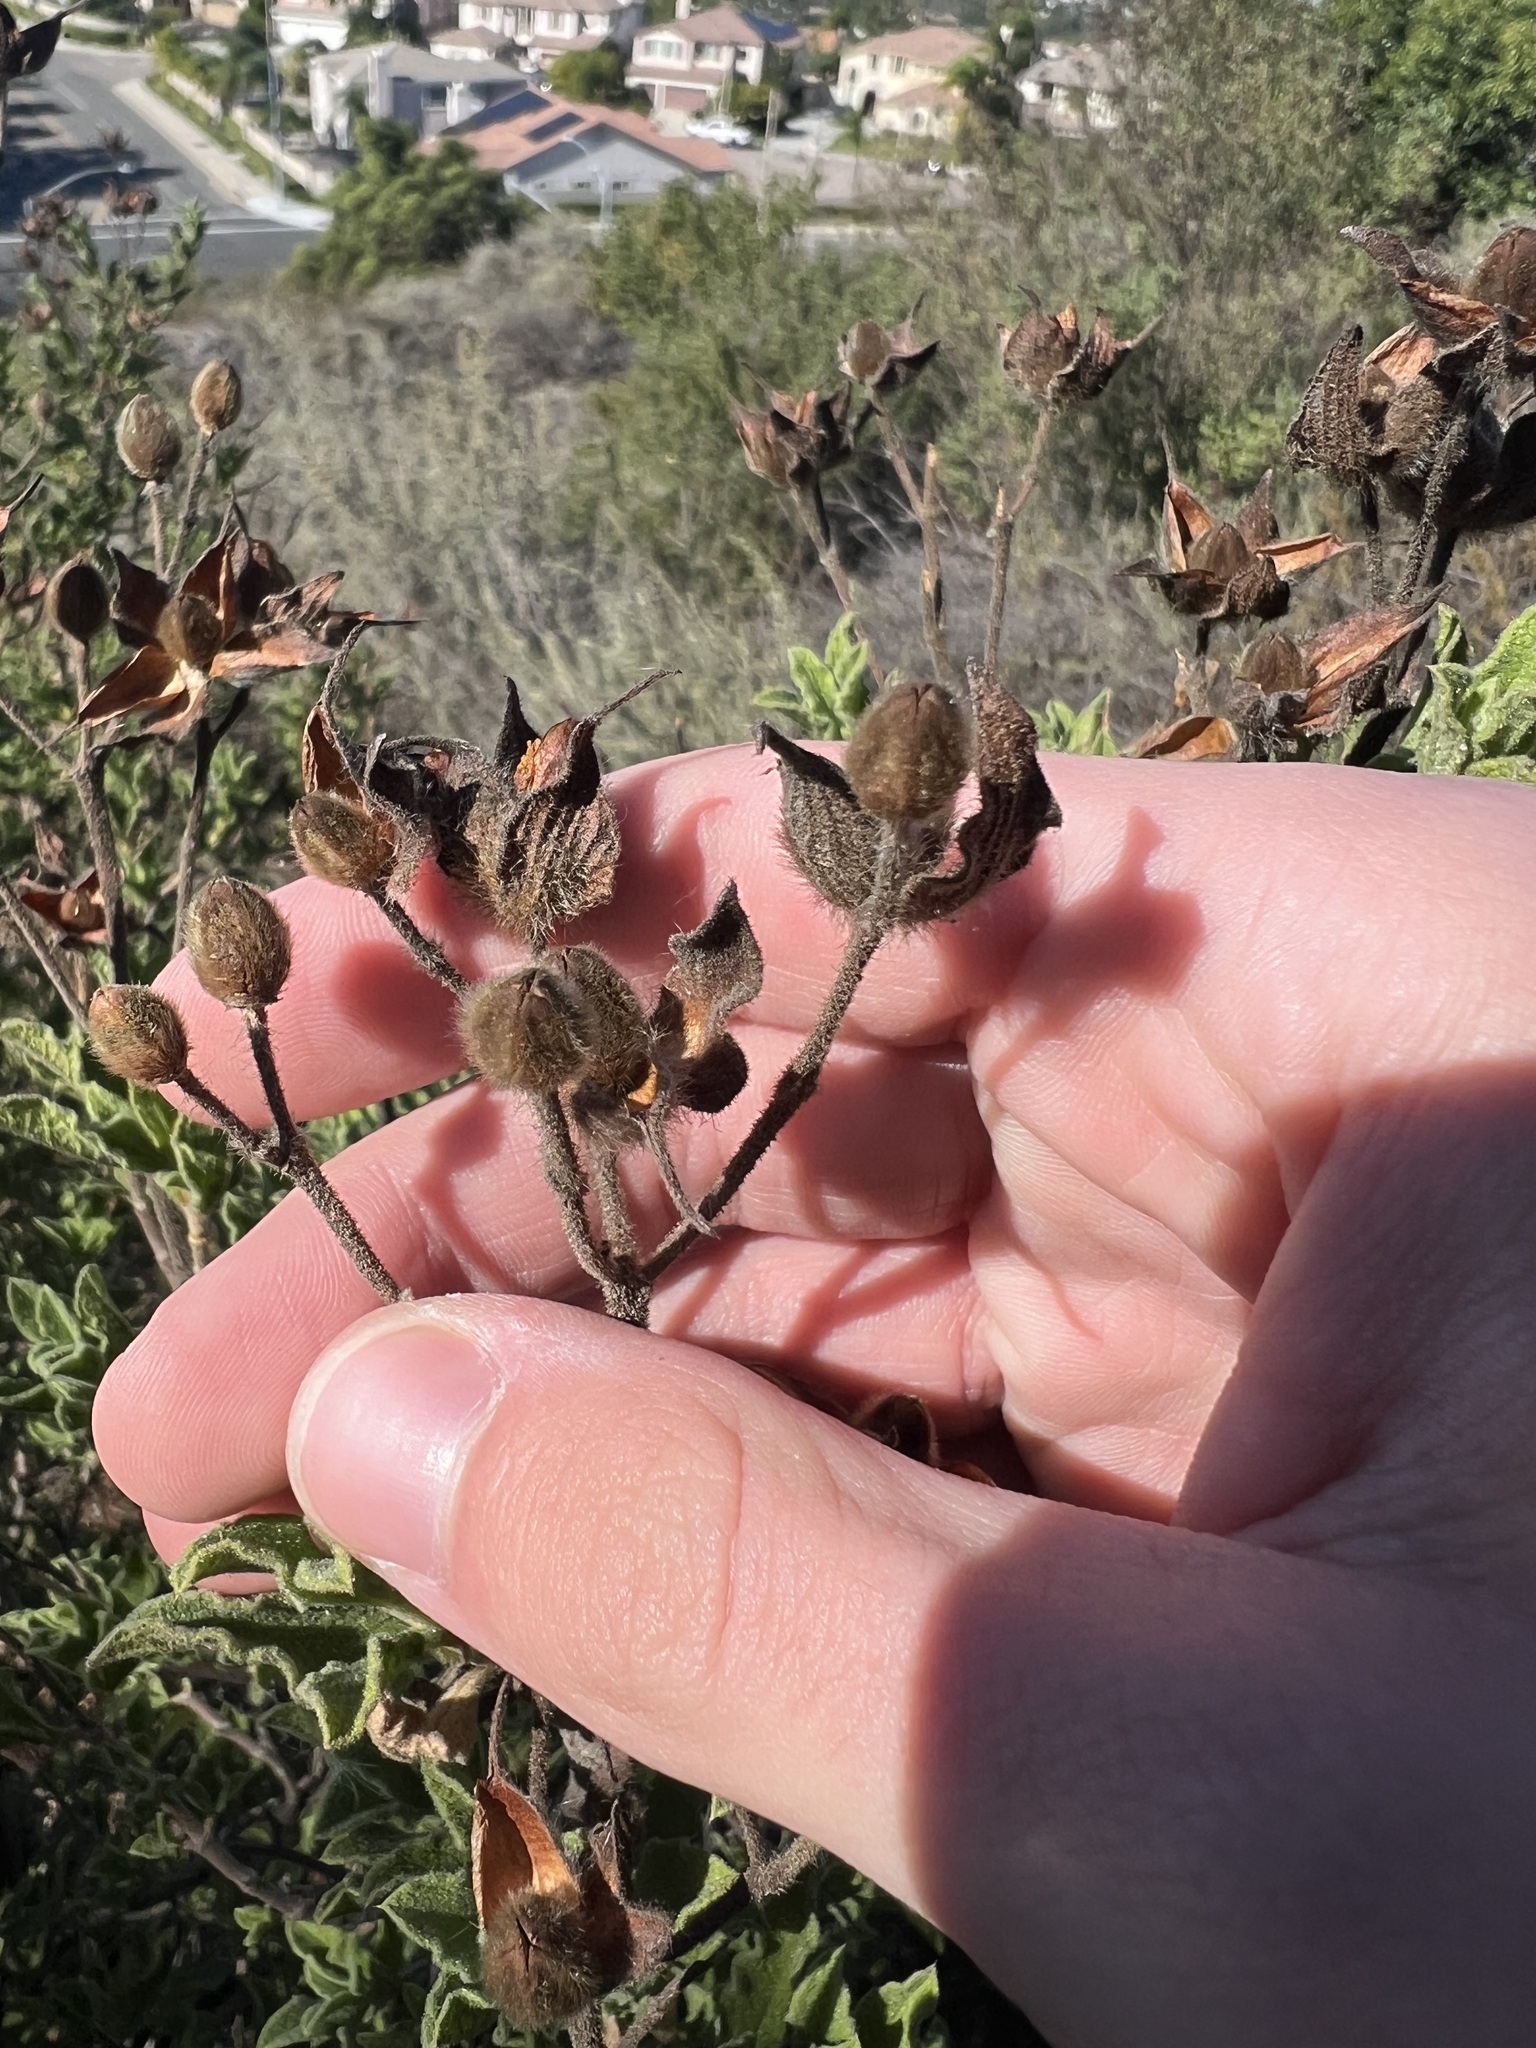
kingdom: Plantae
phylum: Tracheophyta
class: Magnoliopsida
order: Malvales
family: Cistaceae
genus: Cistus
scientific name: Cistus creticus
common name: Cretan rockrose
